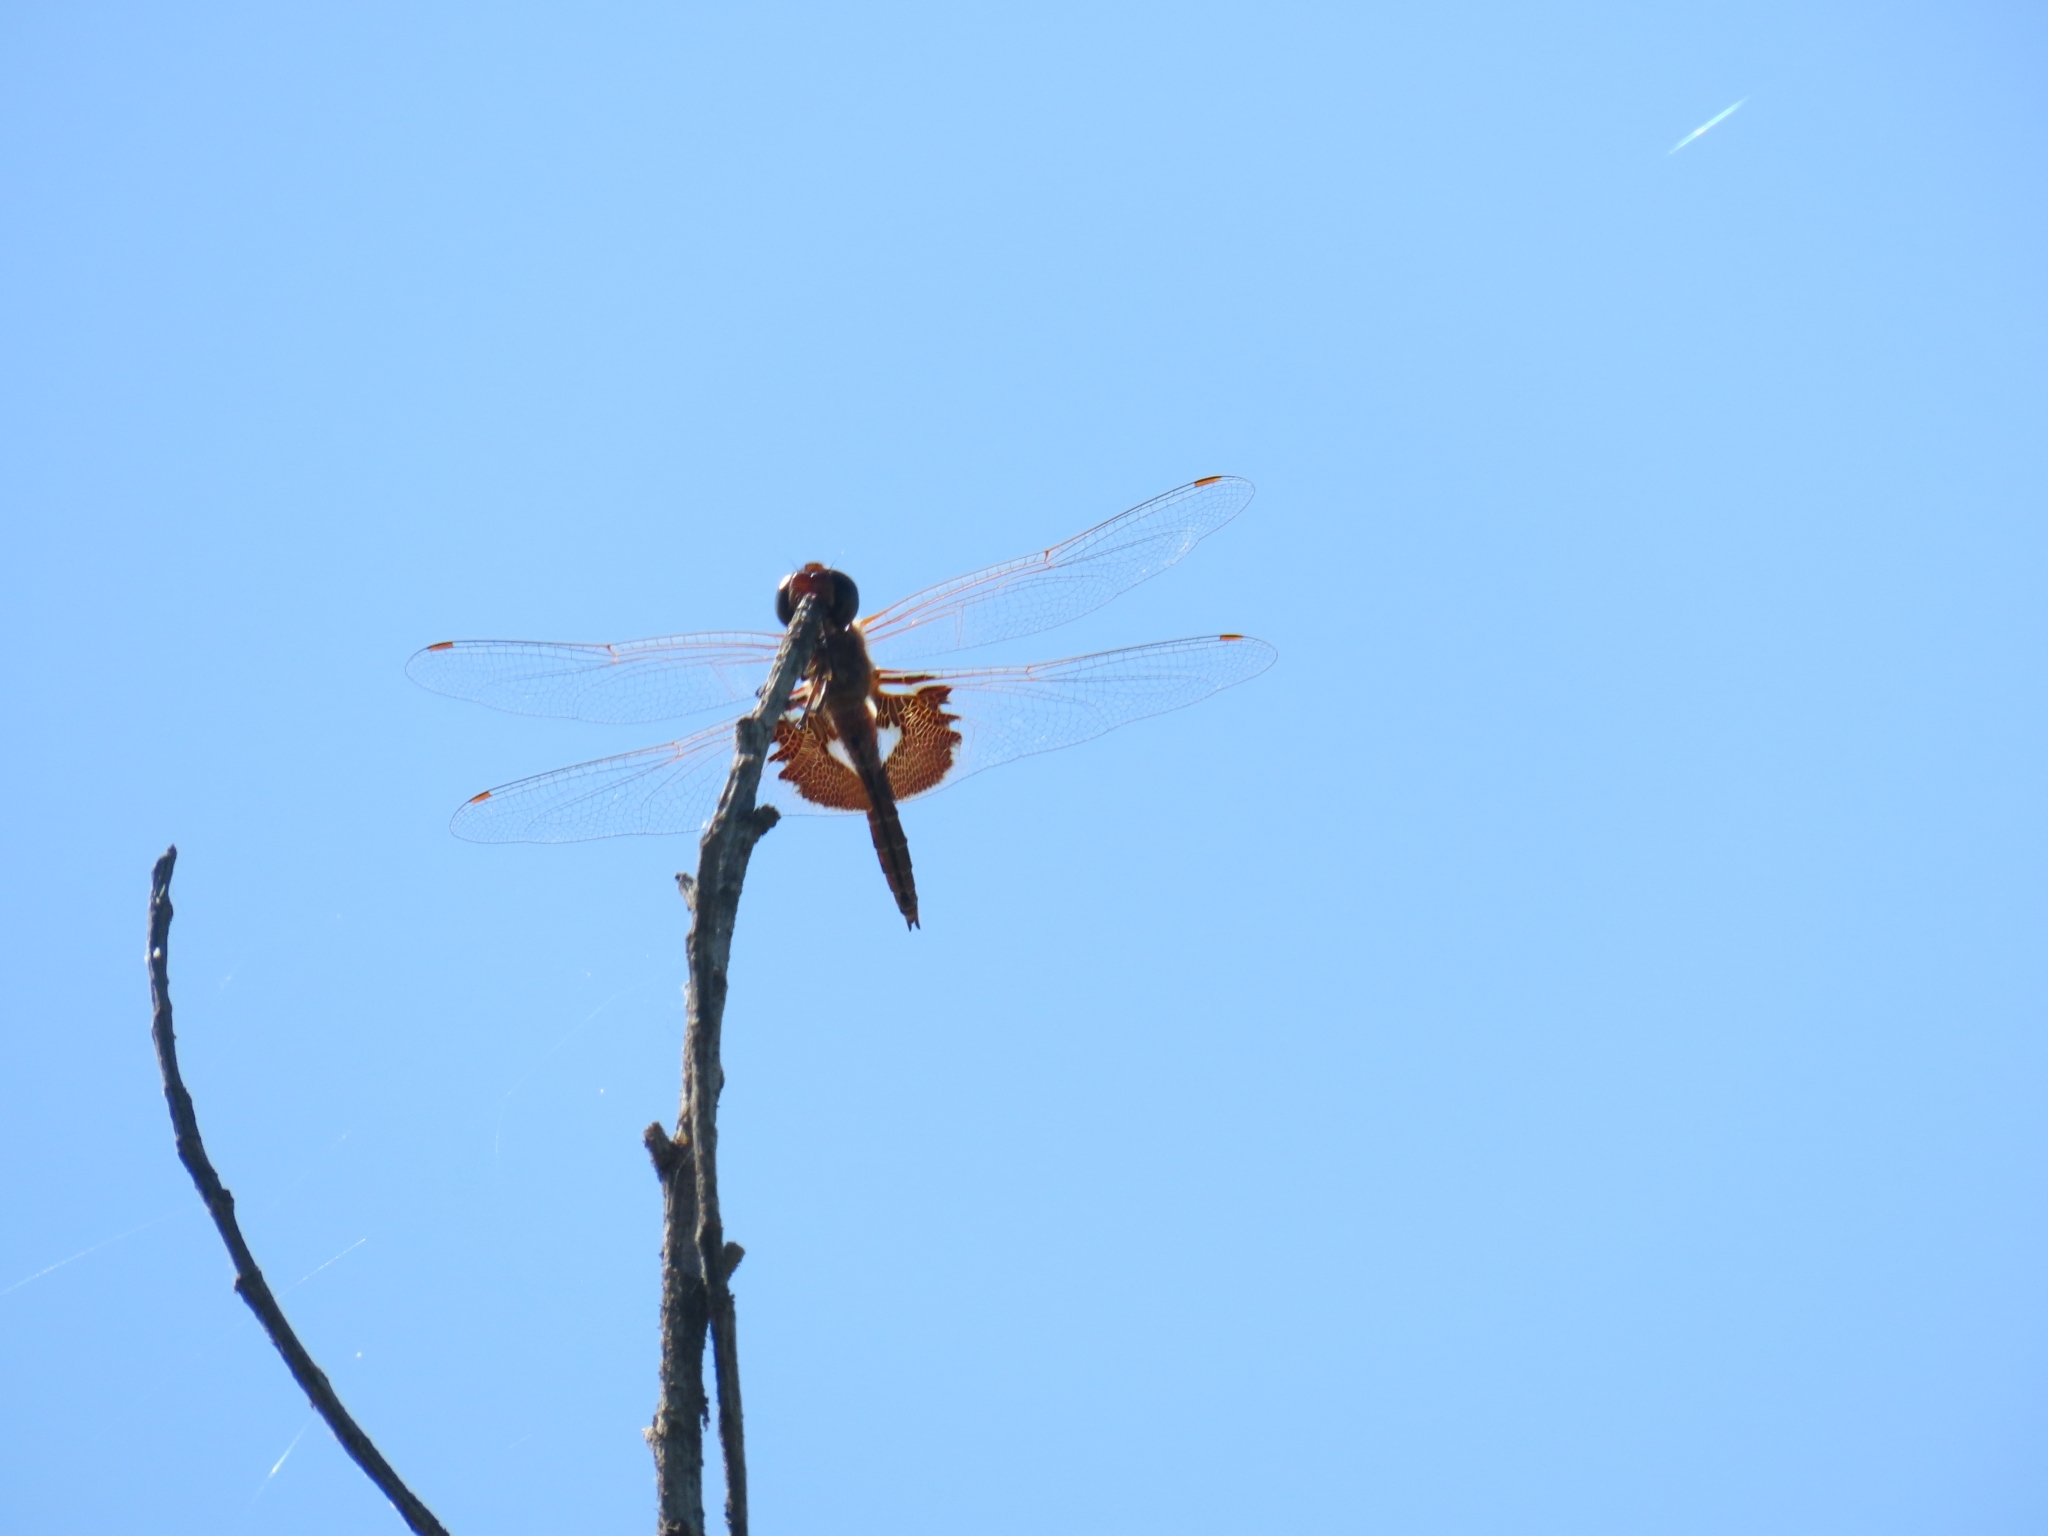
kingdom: Animalia
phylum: Arthropoda
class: Insecta
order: Odonata
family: Libellulidae
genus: Tramea
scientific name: Tramea onusta
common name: Red saddlebags
